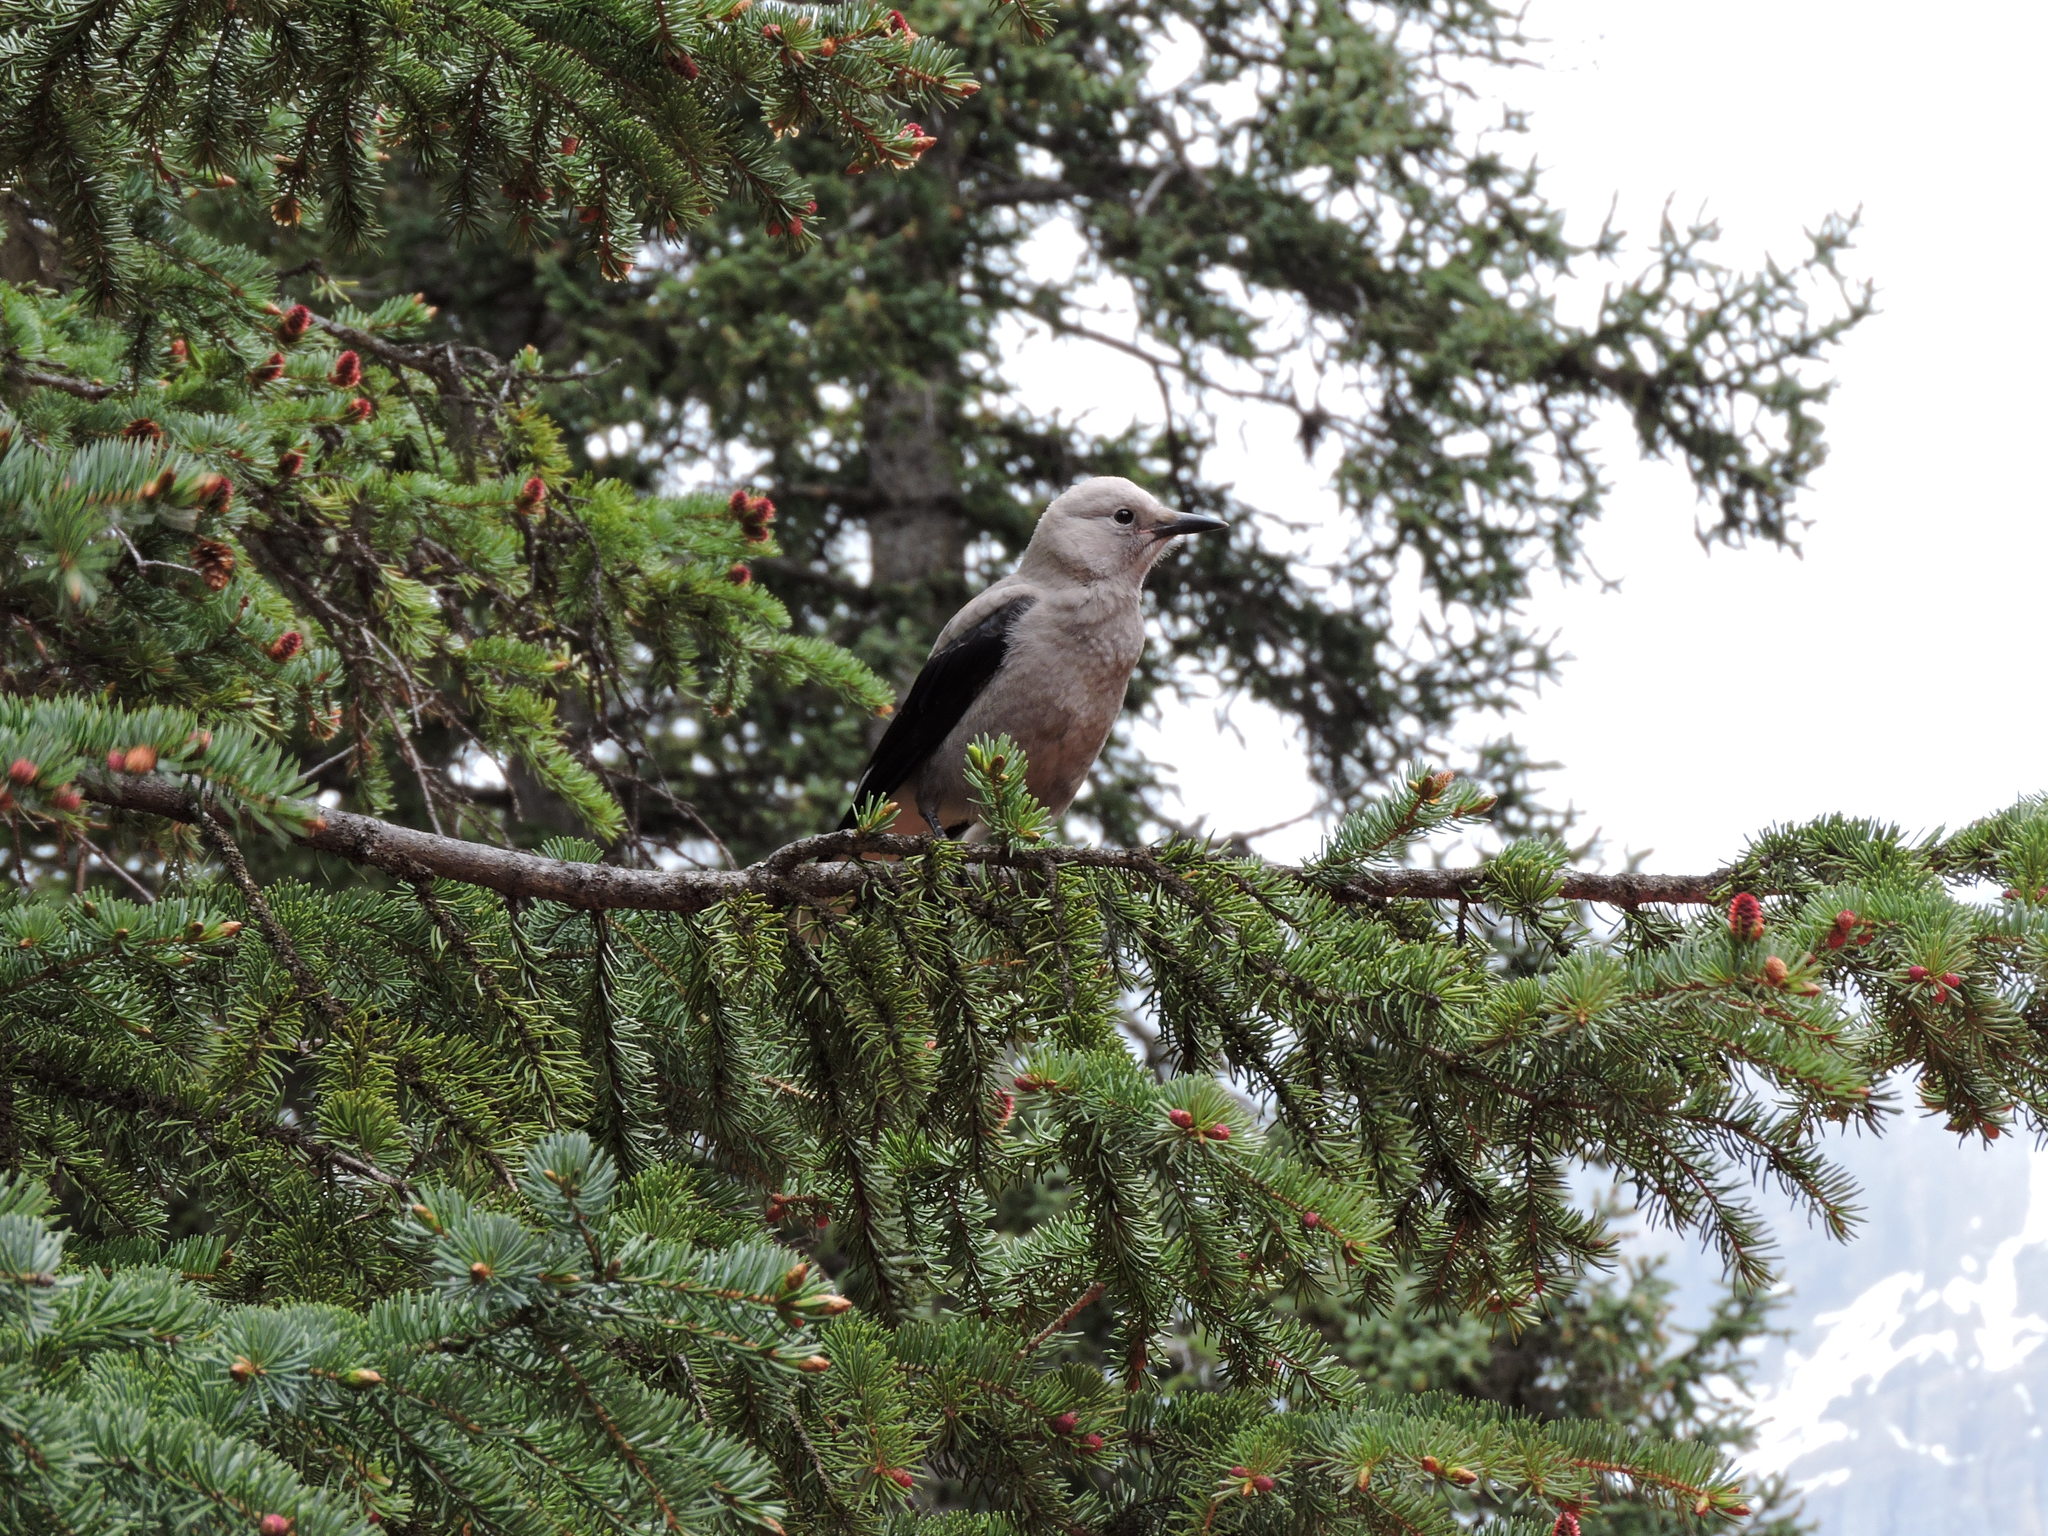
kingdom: Animalia
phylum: Chordata
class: Aves
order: Passeriformes
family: Corvidae
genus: Nucifraga
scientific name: Nucifraga columbiana
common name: Clark's nutcracker
